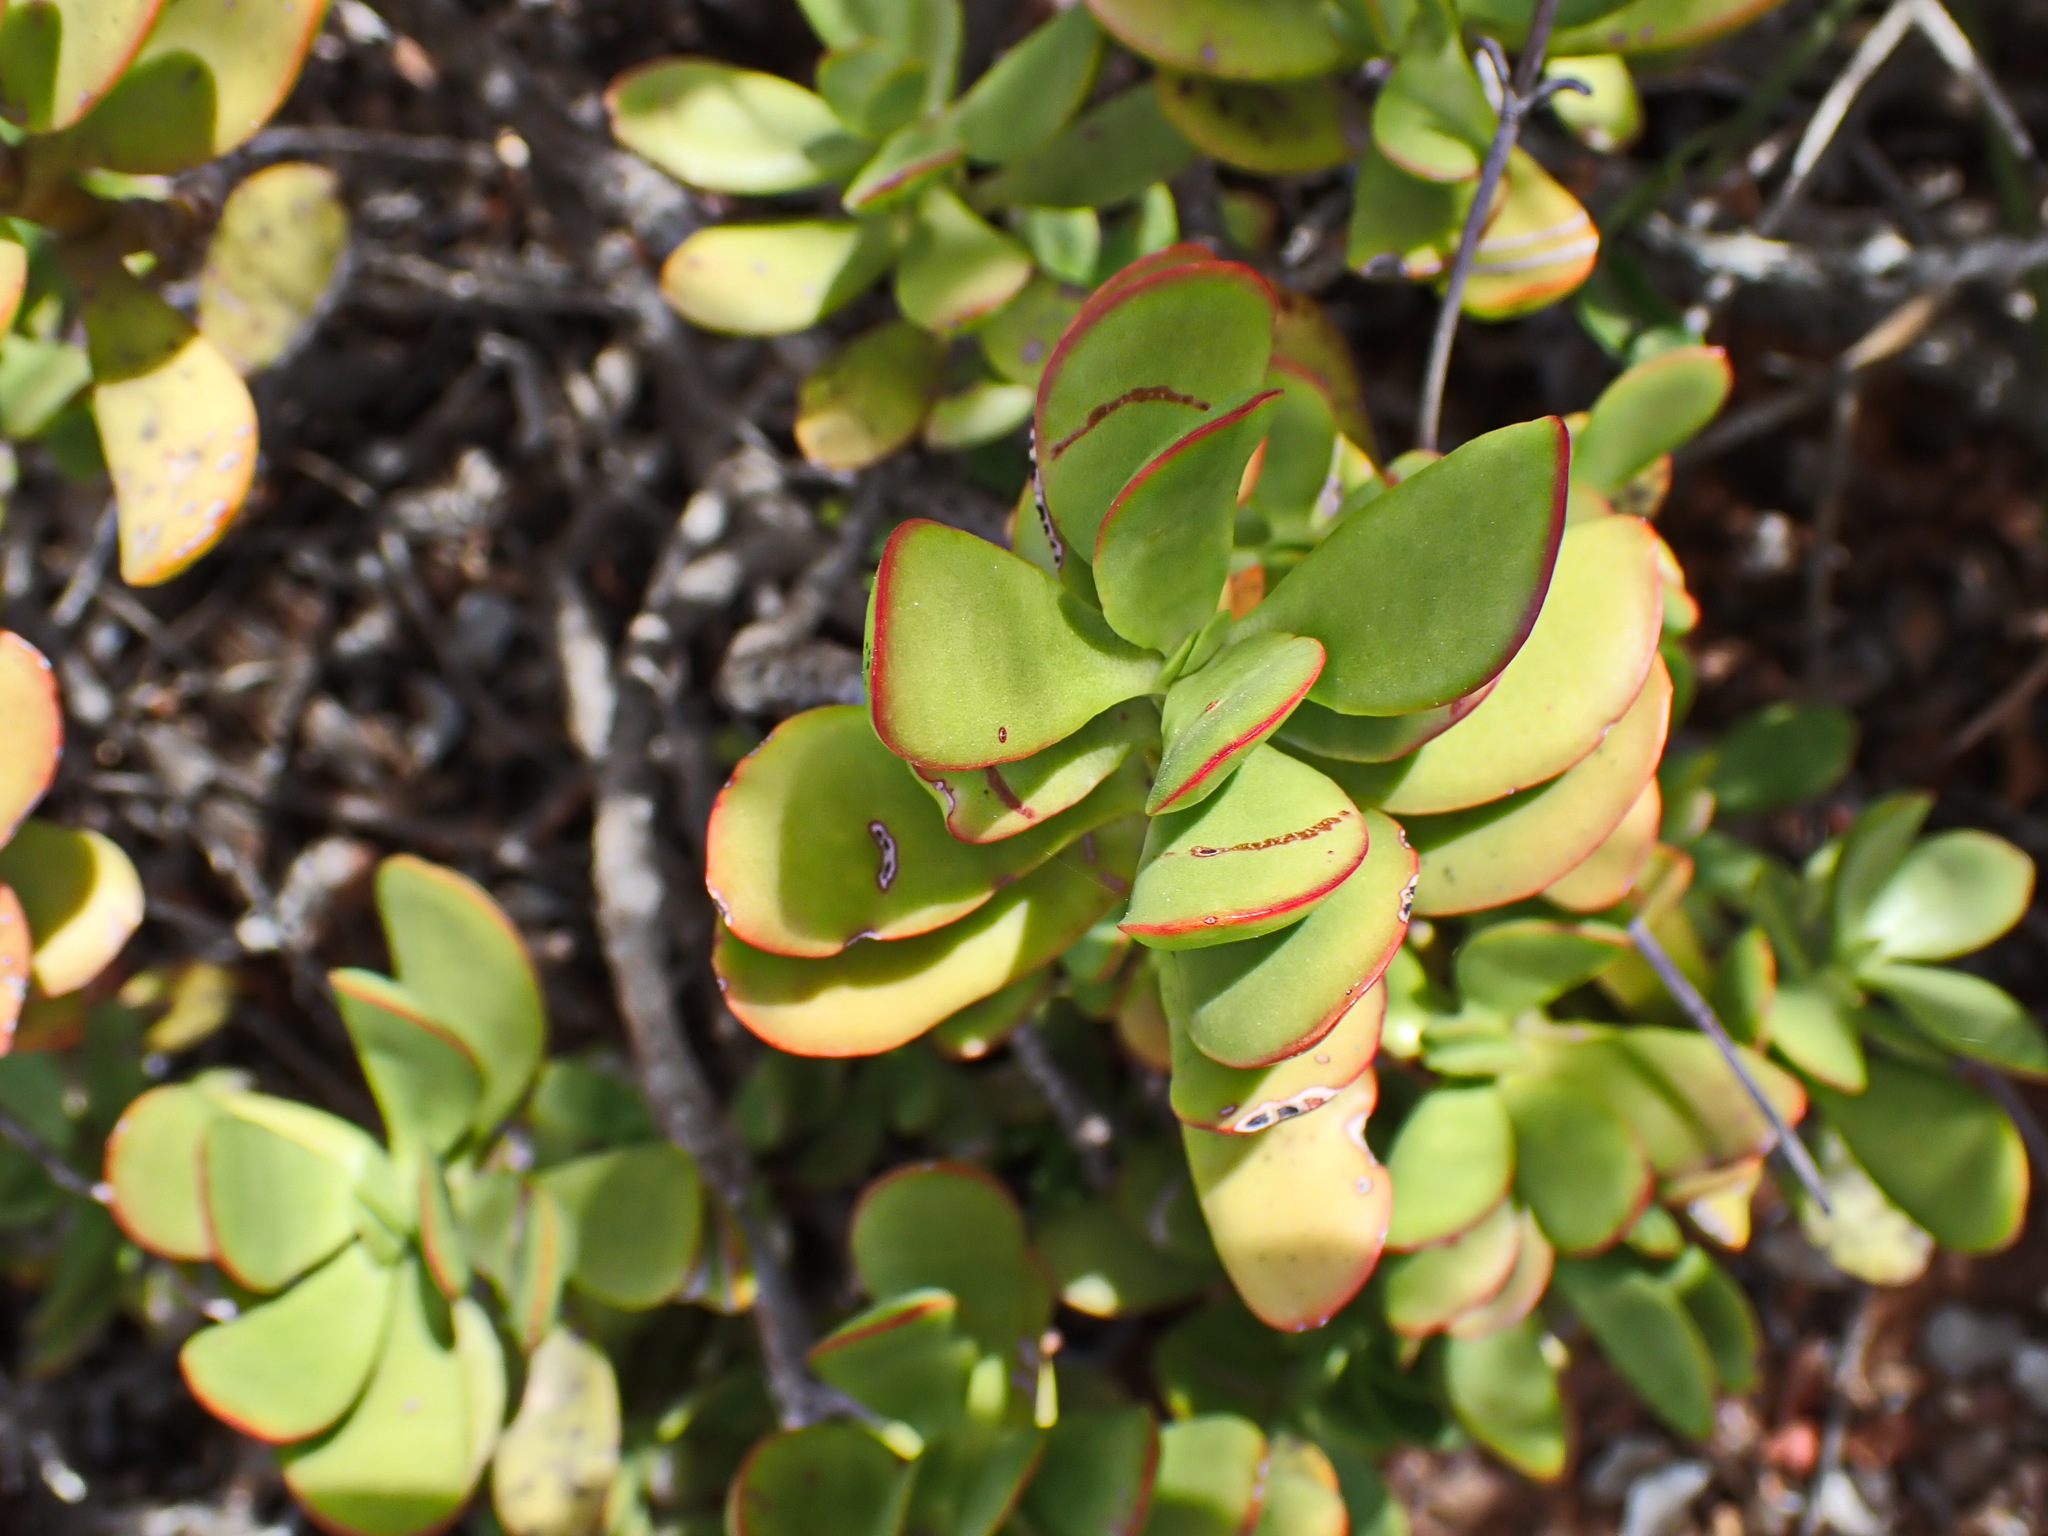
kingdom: Plantae
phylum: Tracheophyta
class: Magnoliopsida
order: Saxifragales
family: Crassulaceae
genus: Crassula
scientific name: Crassula cultrata
